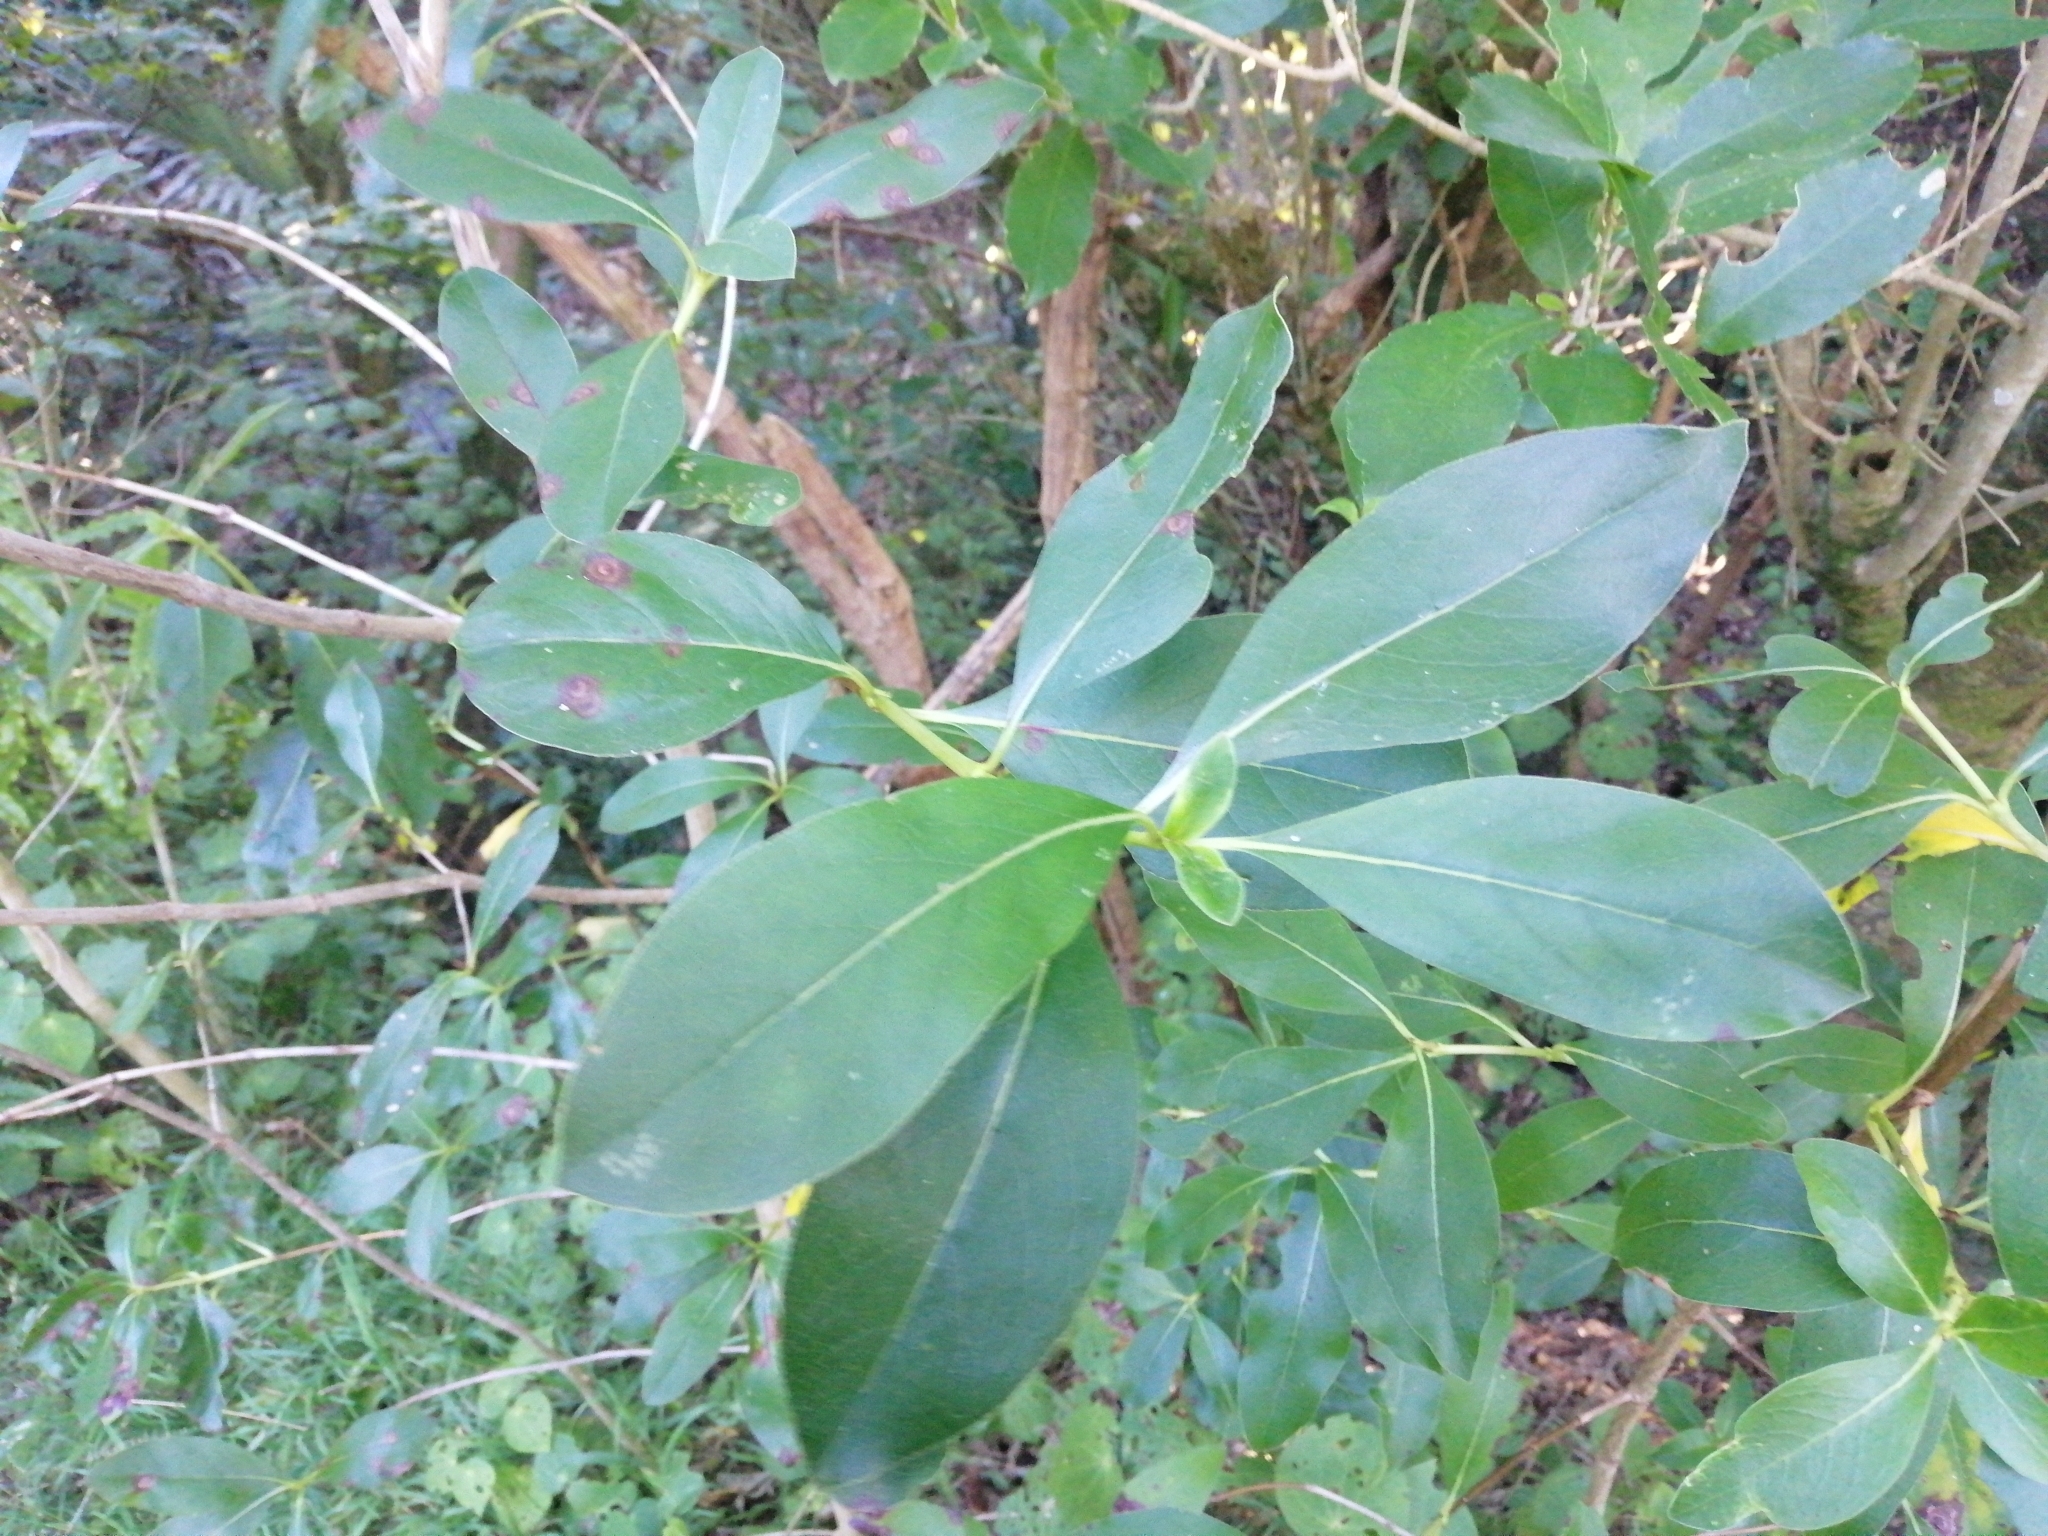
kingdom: Plantae
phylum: Tracheophyta
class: Magnoliopsida
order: Gentianales
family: Rubiaceae
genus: Coprosma
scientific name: Coprosma robusta
